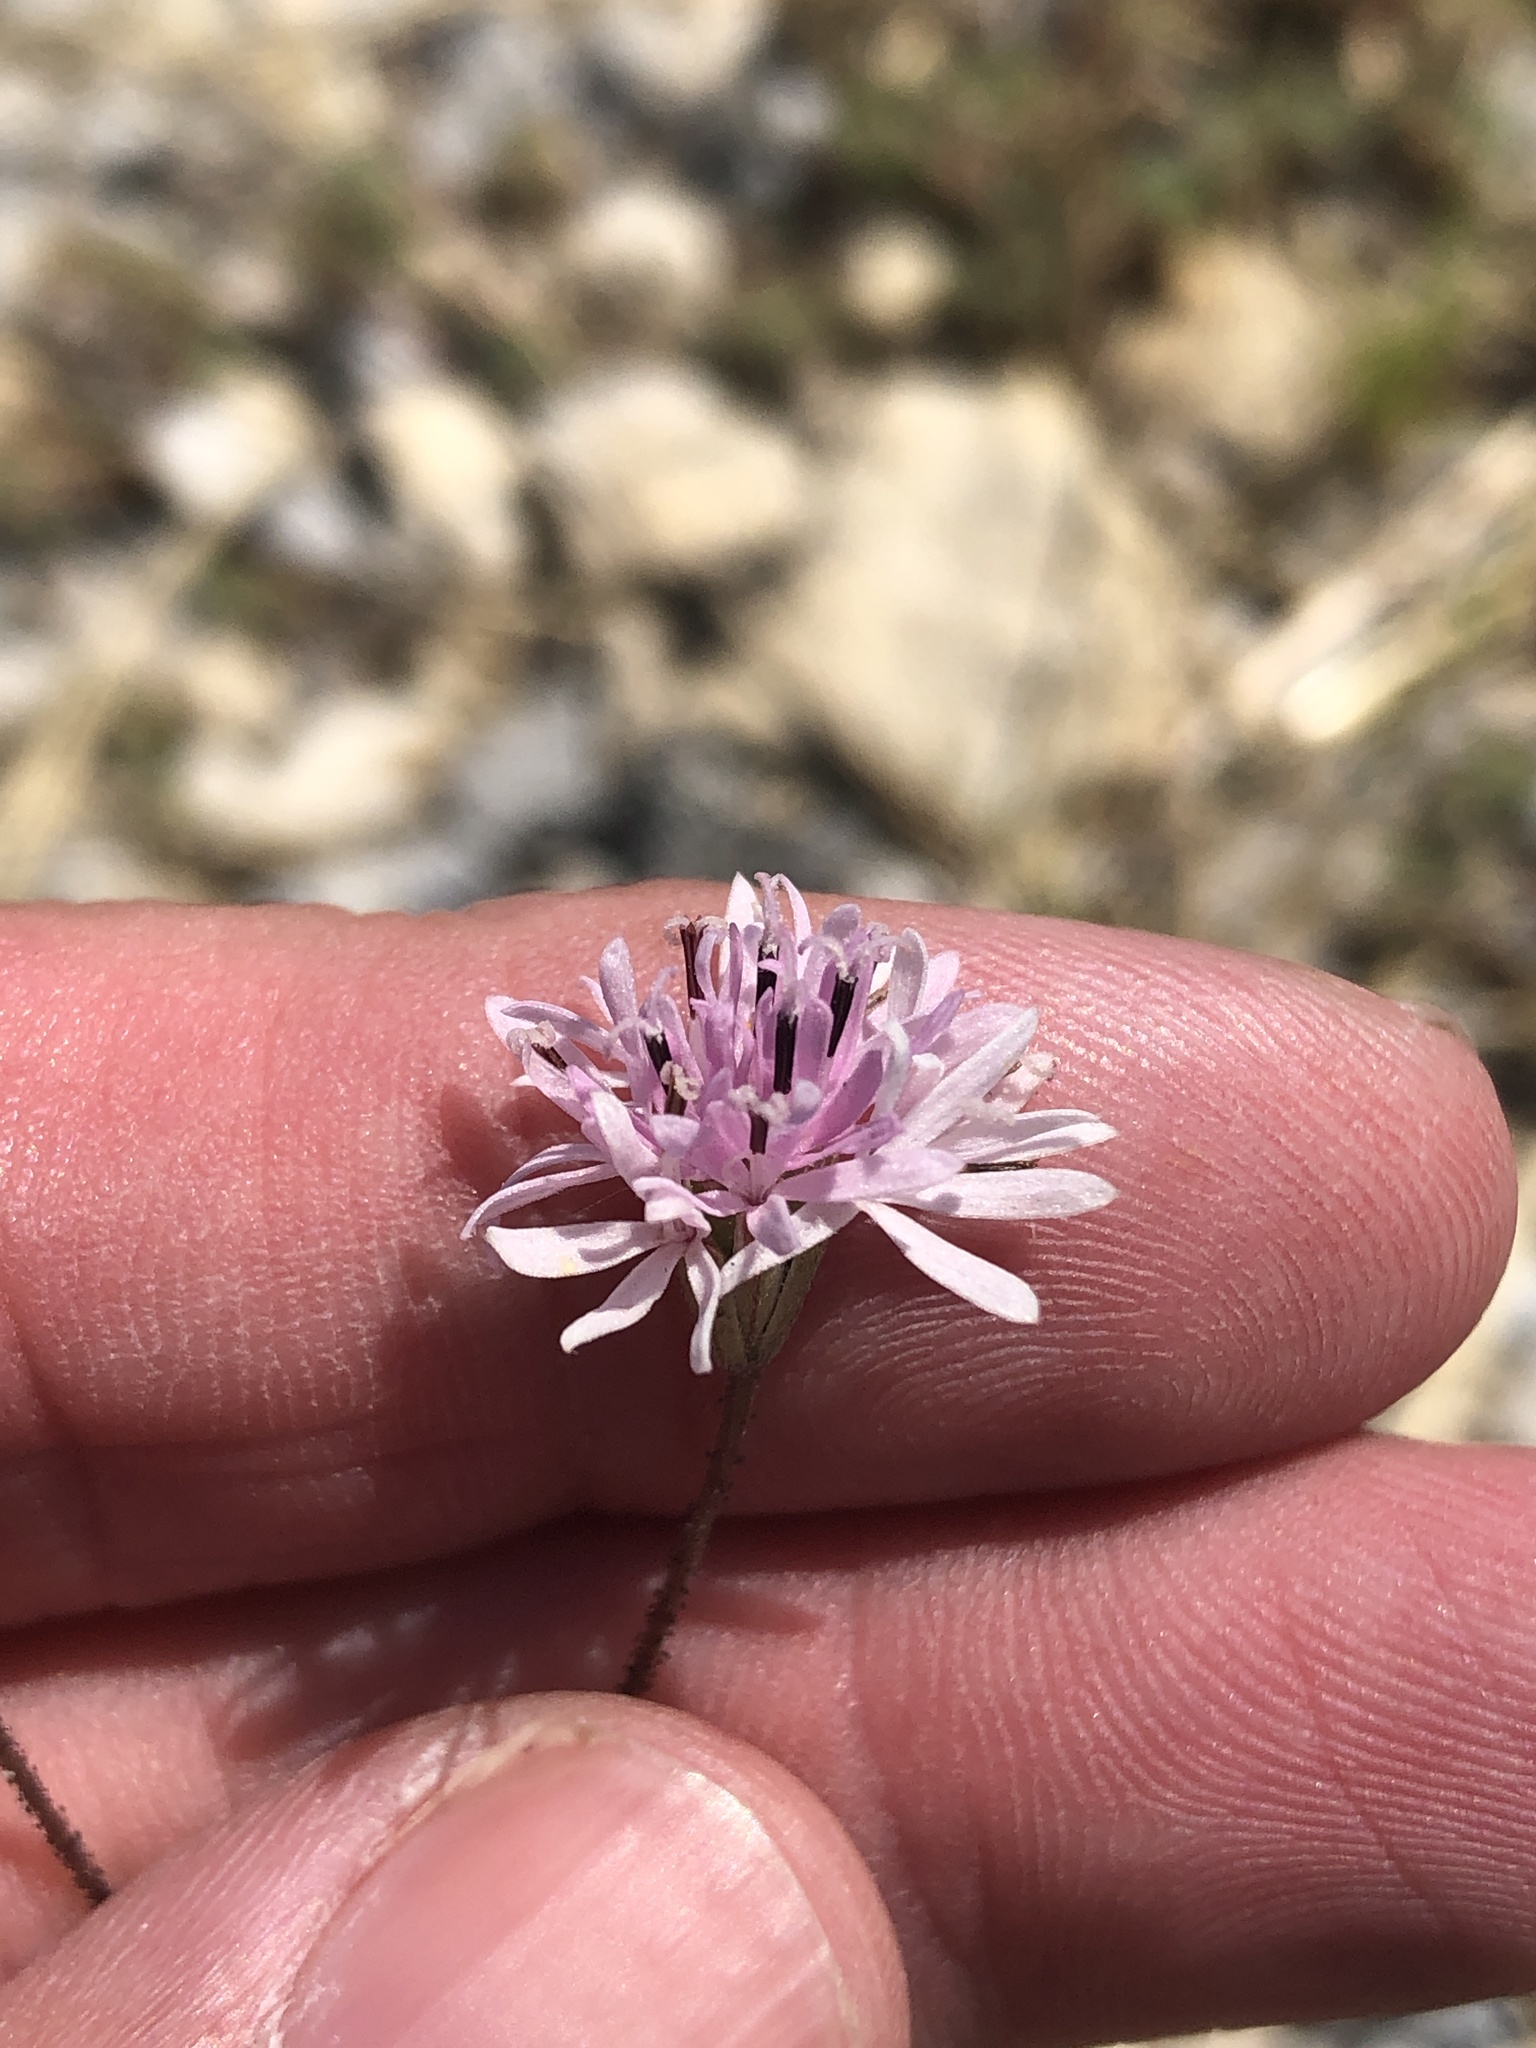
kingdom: Plantae
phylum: Tracheophyta
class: Magnoliopsida
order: Asterales
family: Asteraceae
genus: Palafoxia
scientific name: Palafoxia callosa
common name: Small palafox
